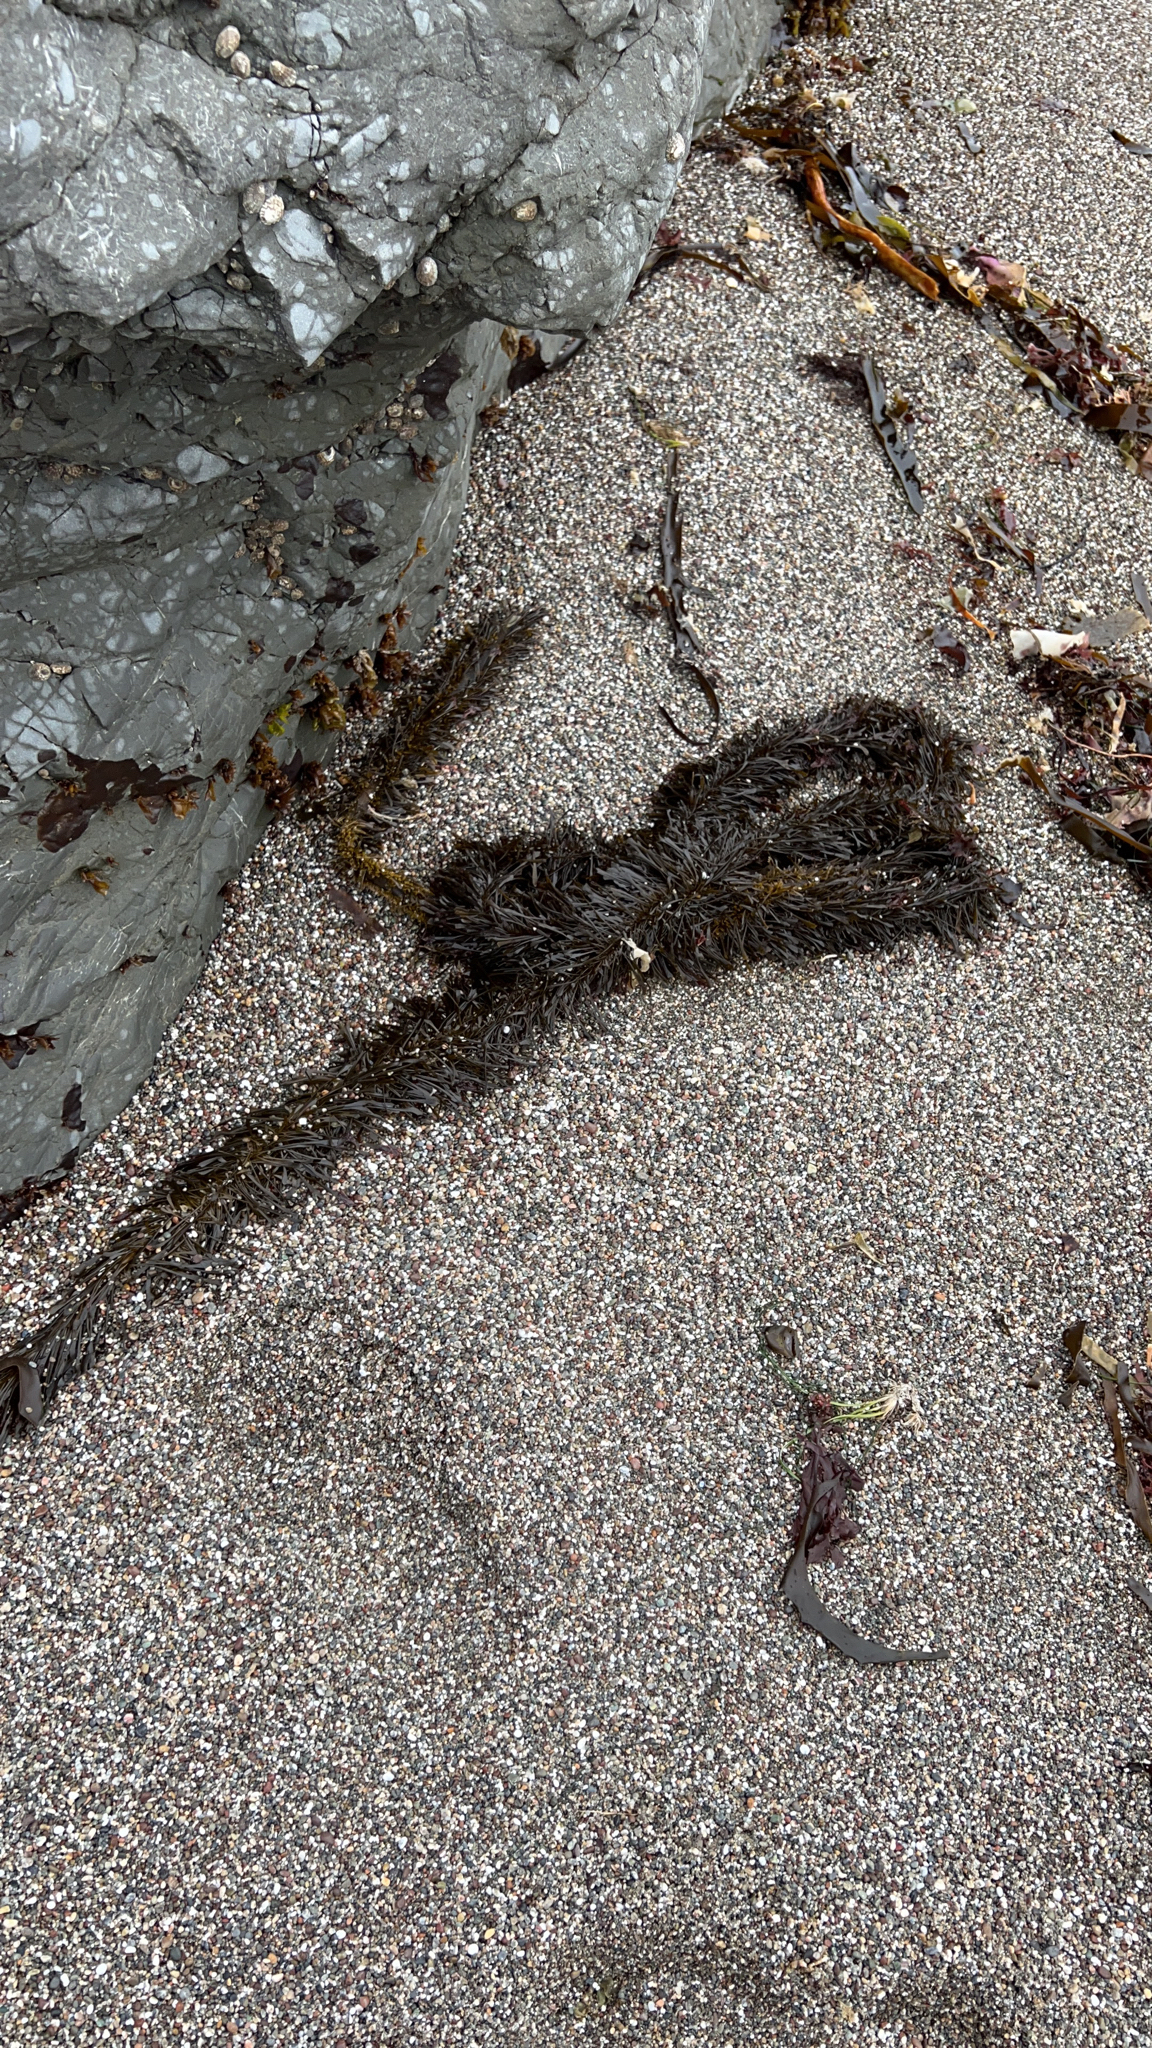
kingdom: Chromista
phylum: Ochrophyta
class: Phaeophyceae
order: Laminariales
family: Lessoniaceae
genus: Egregia
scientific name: Egregia menziesii
